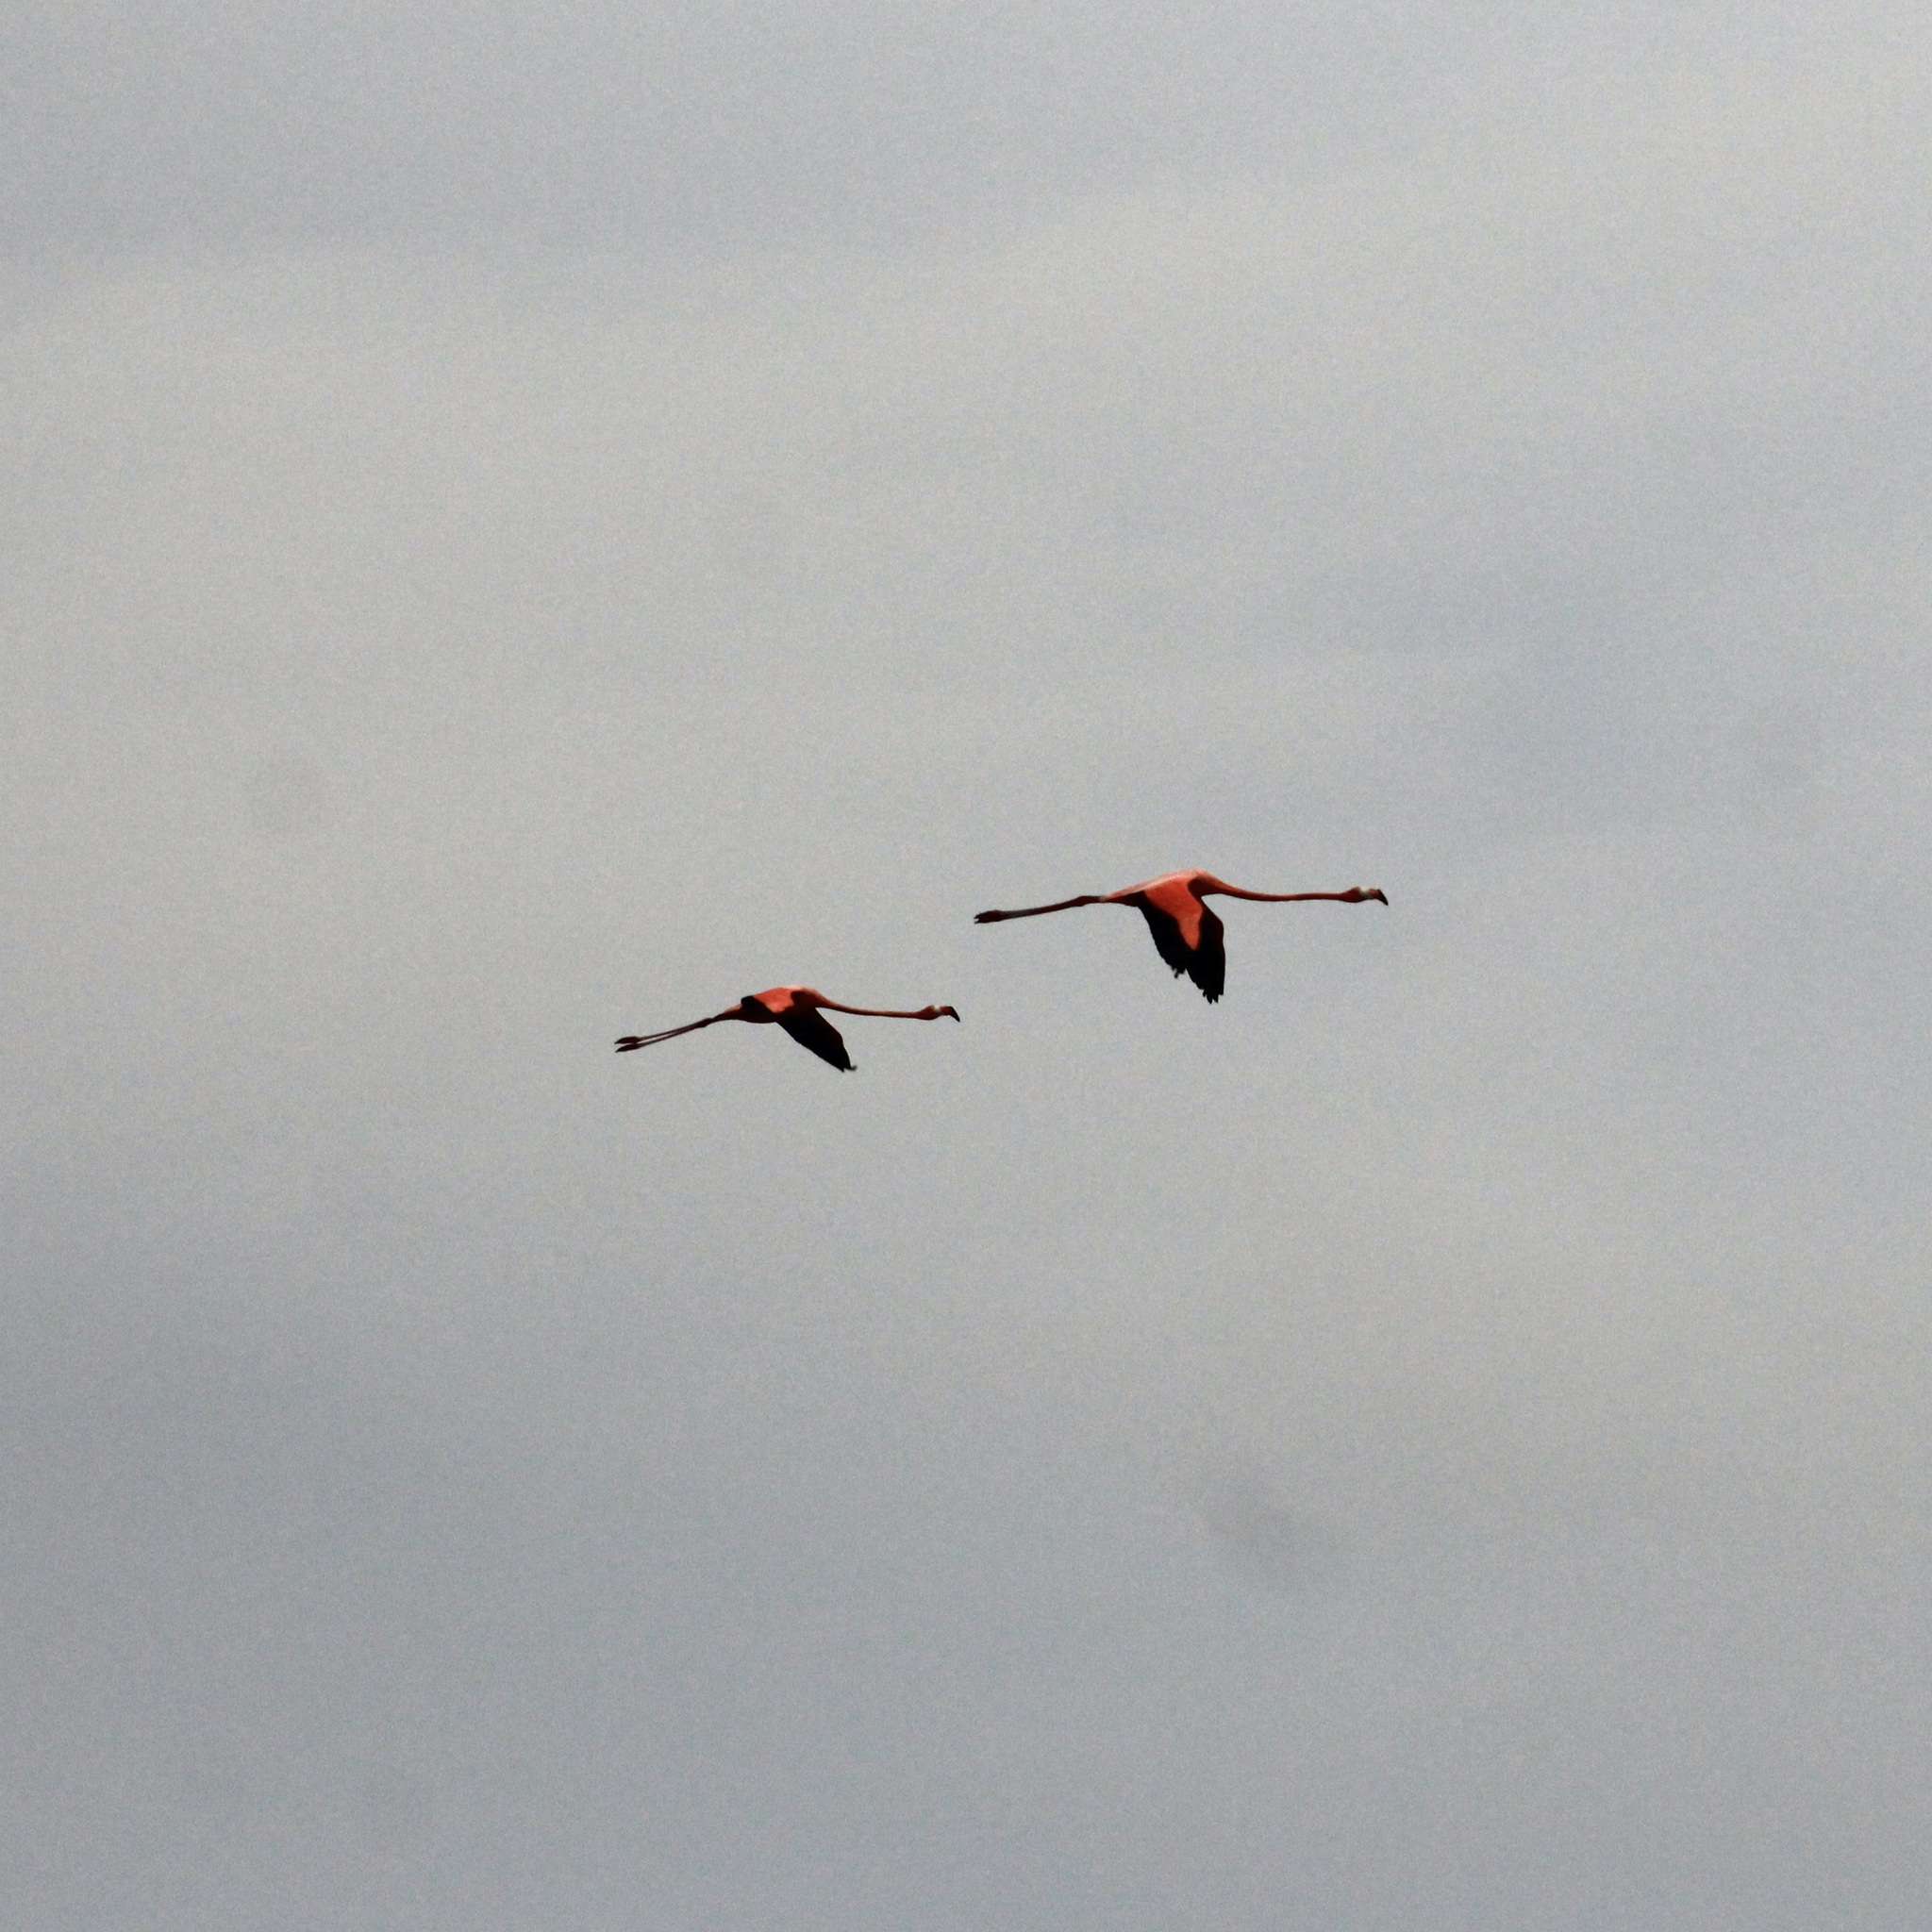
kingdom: Animalia
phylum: Chordata
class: Aves
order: Phoenicopteriformes
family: Phoenicopteridae
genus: Phoenicopterus
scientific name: Phoenicopterus ruber
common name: American flamingo
